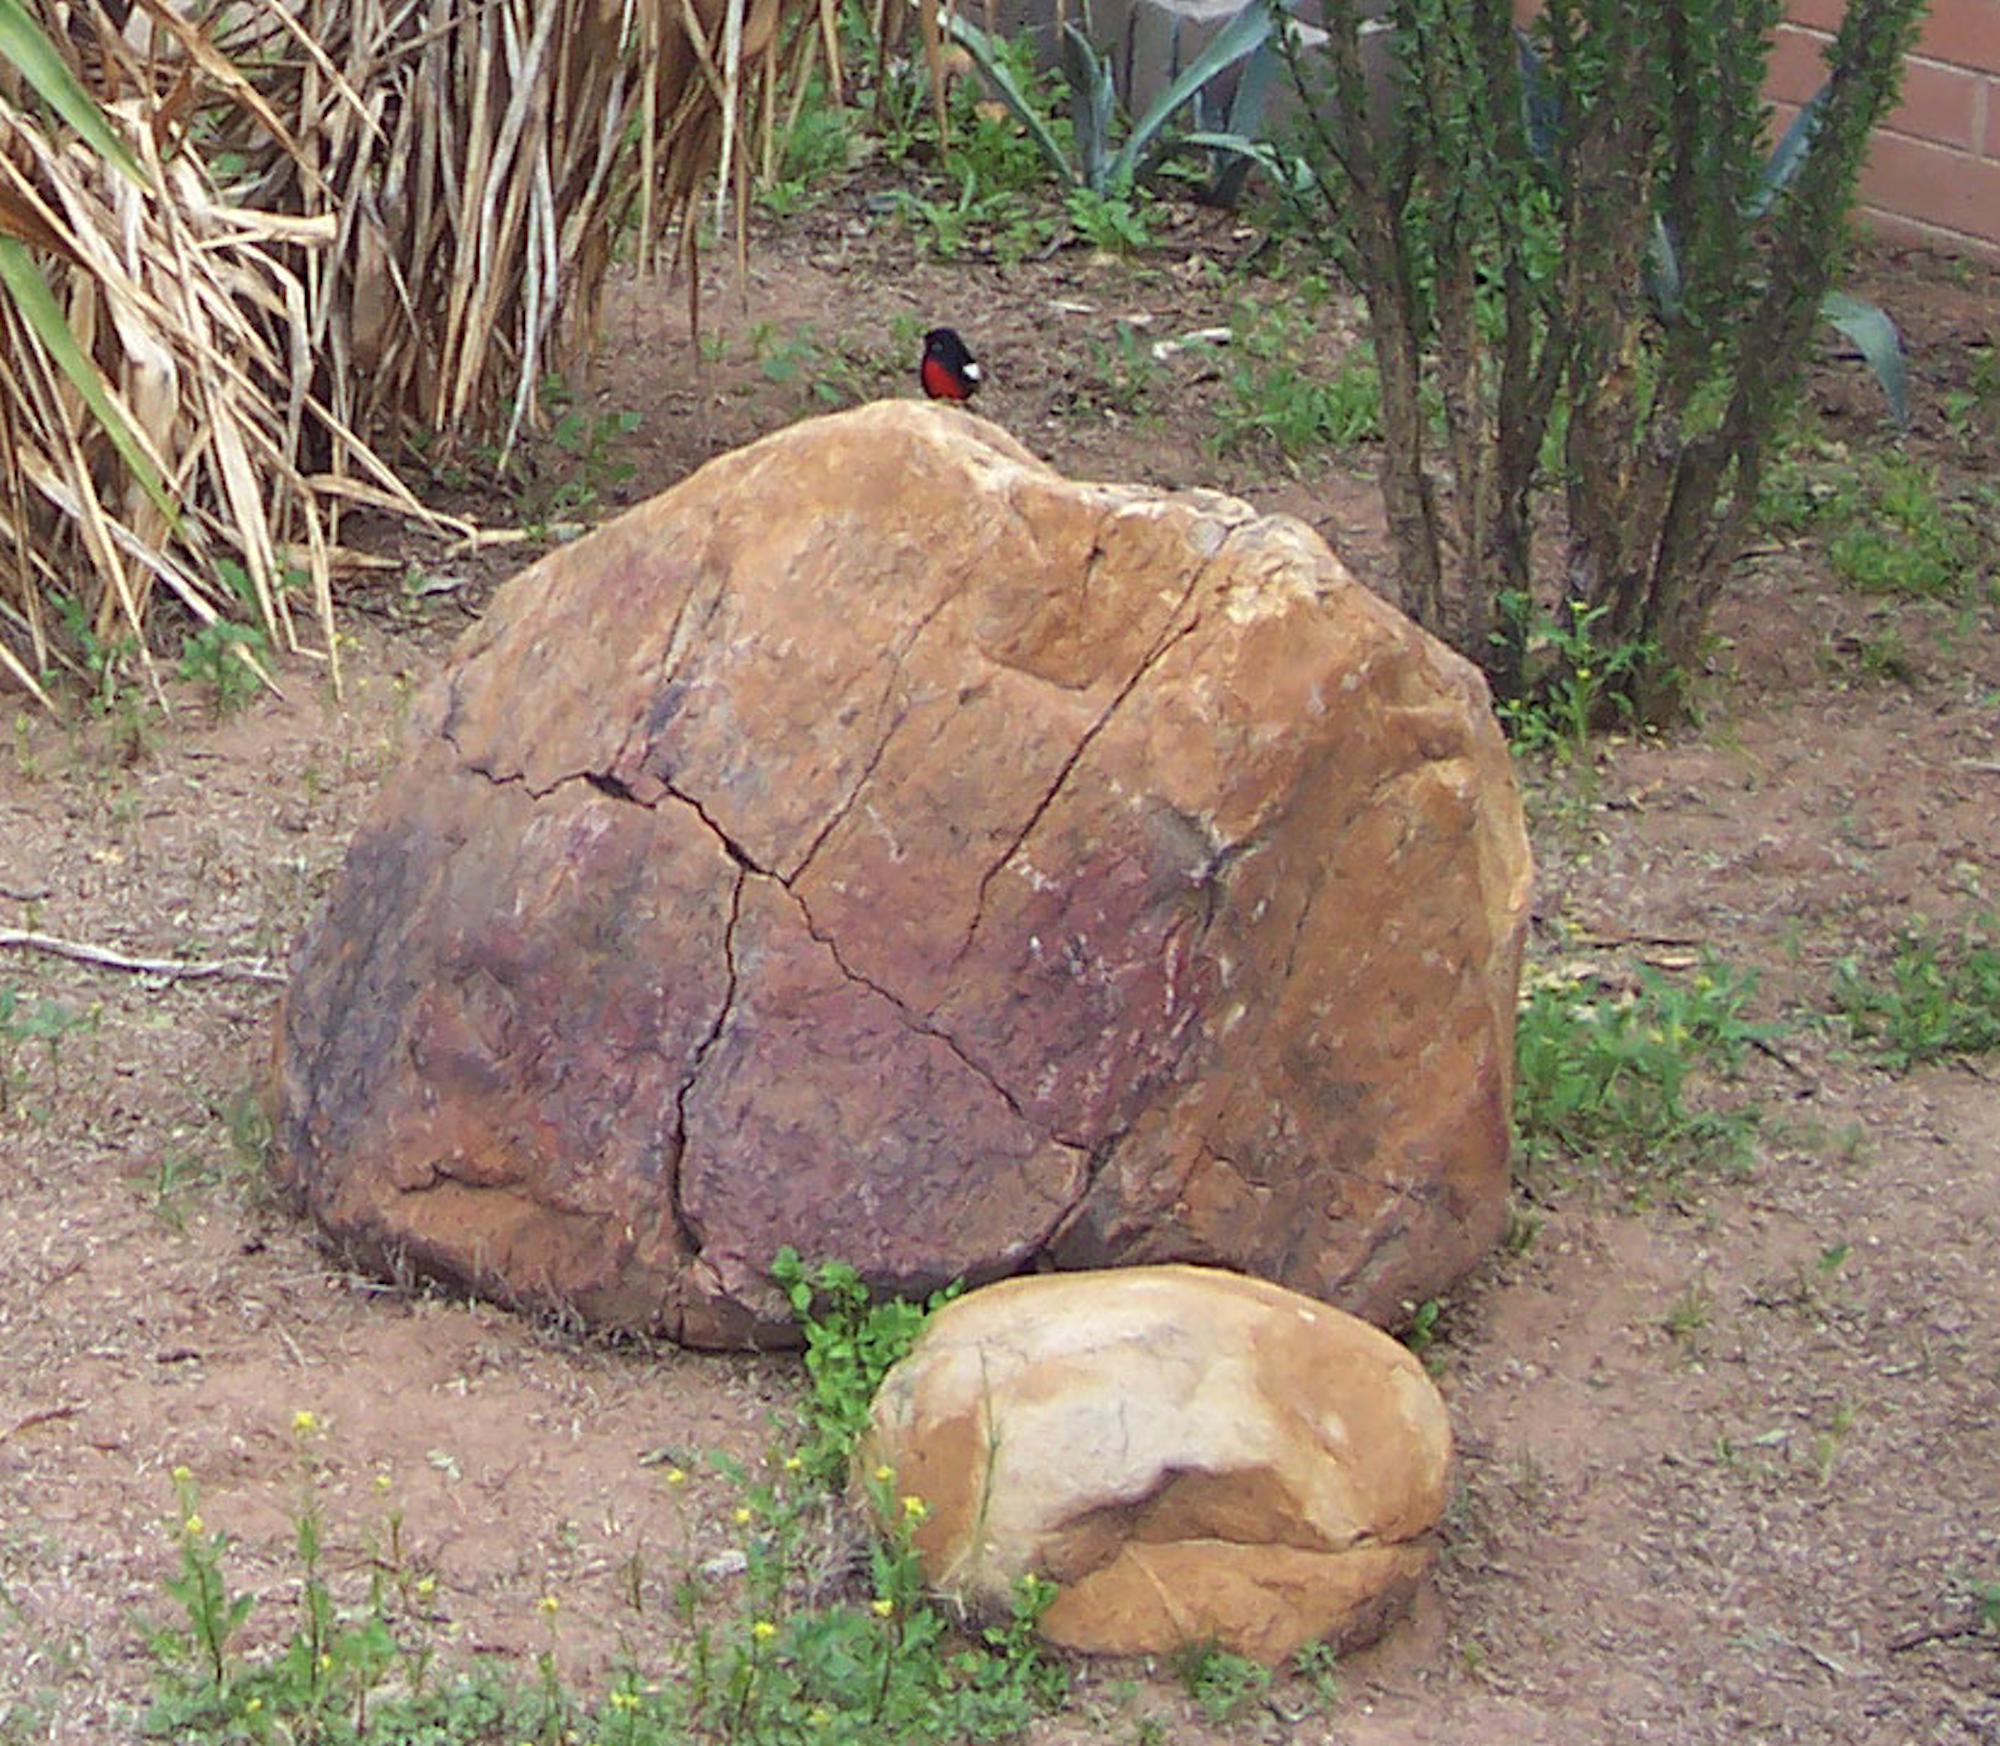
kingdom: Animalia
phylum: Chordata
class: Aves
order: Passeriformes
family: Parulidae
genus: Myioborus
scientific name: Myioborus pictus
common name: Painted whitestart
